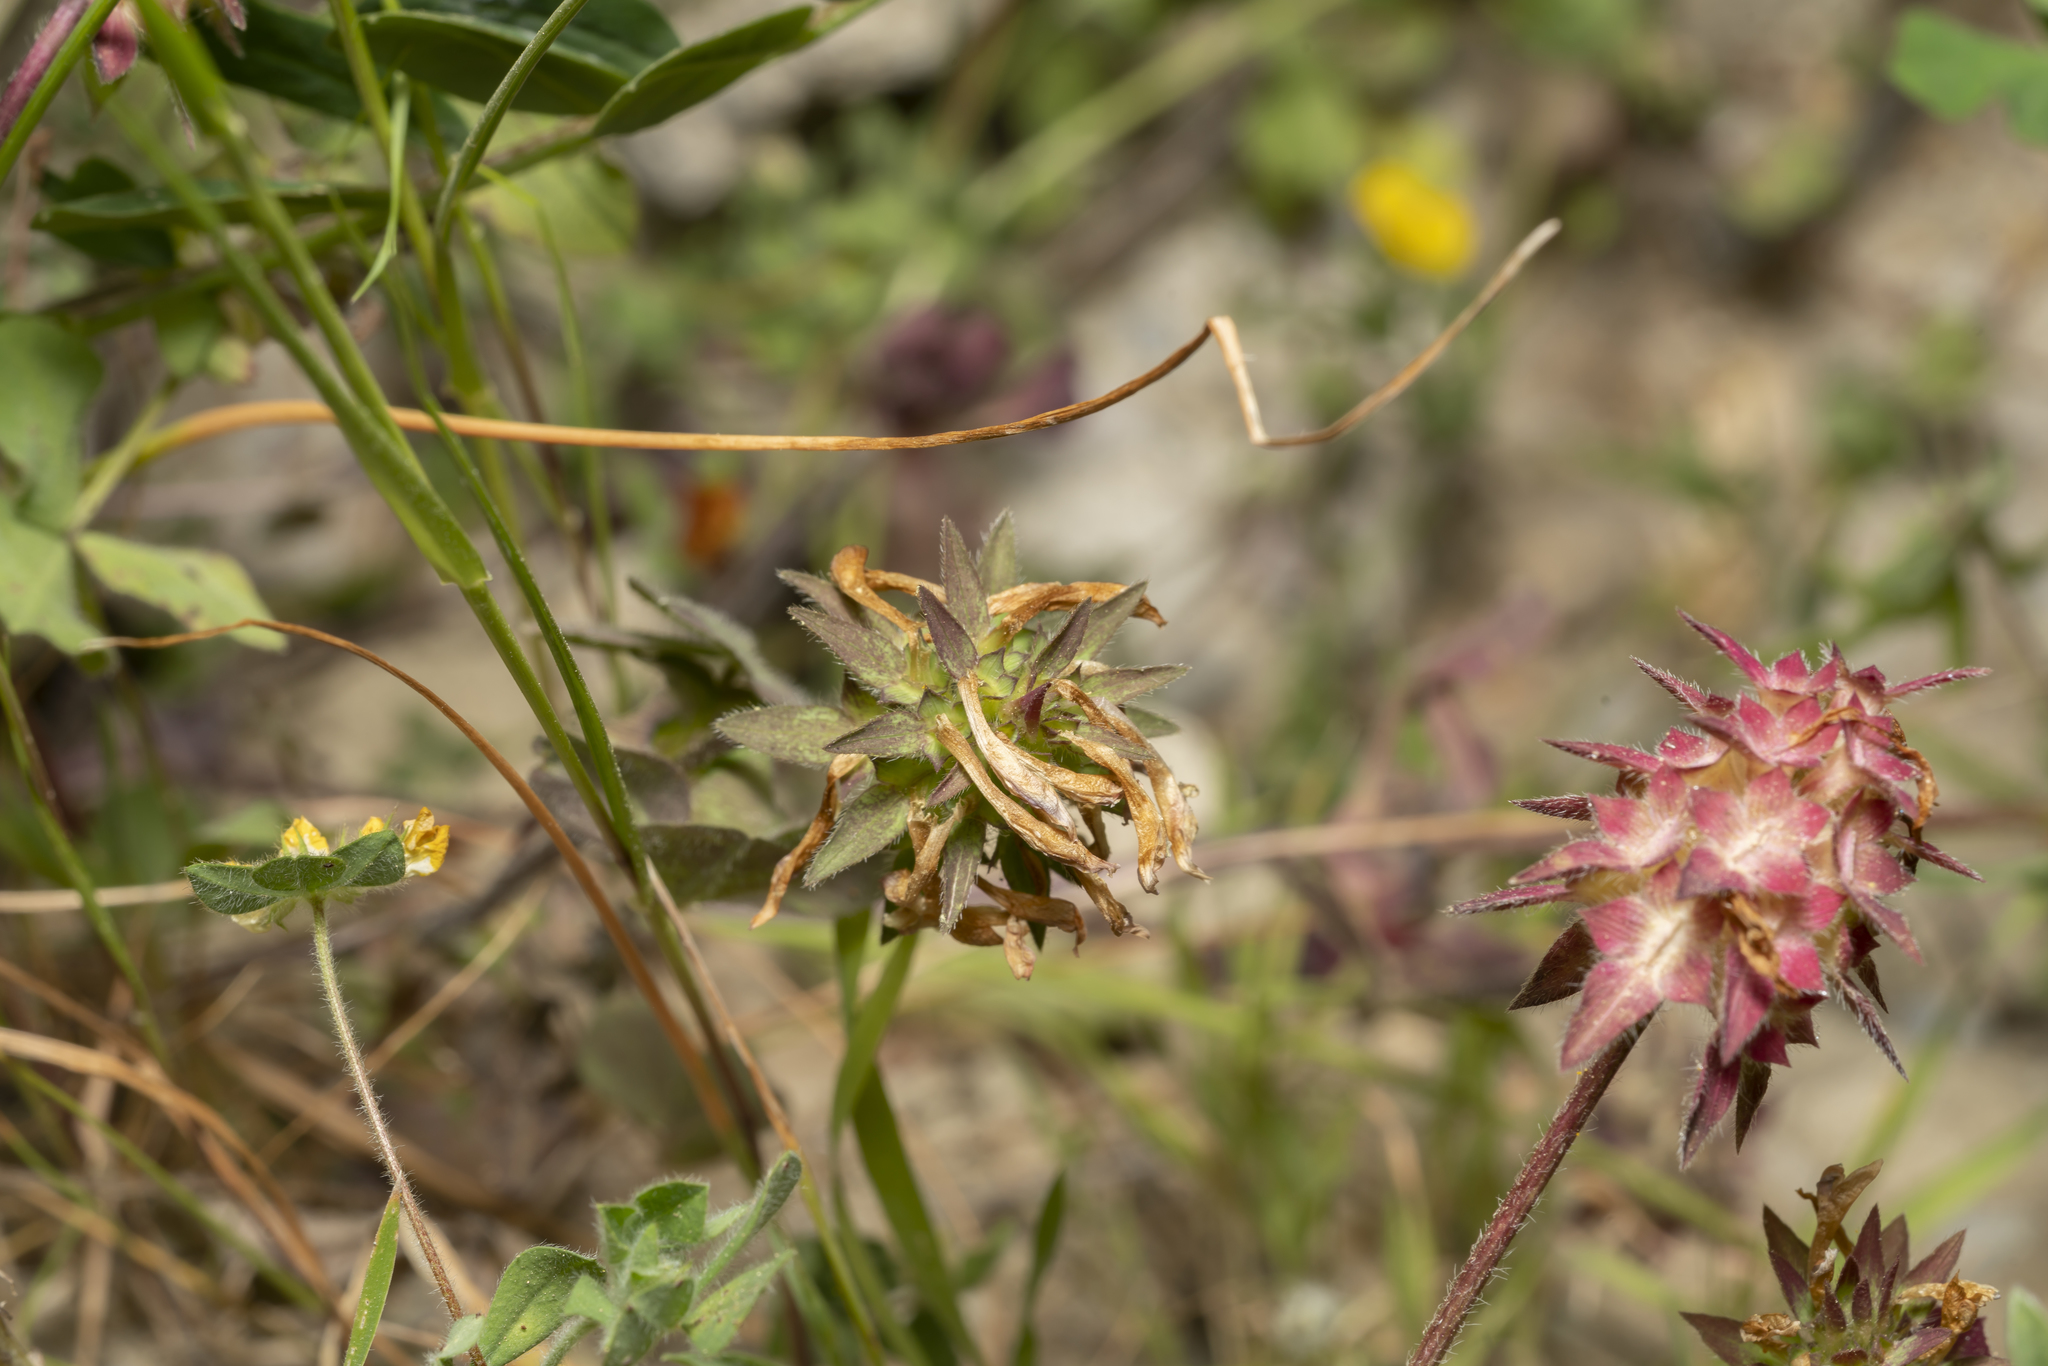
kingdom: Plantae
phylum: Tracheophyta
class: Magnoliopsida
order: Fabales
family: Fabaceae
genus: Trifolium
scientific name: Trifolium clypeatum
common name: Shield clover
